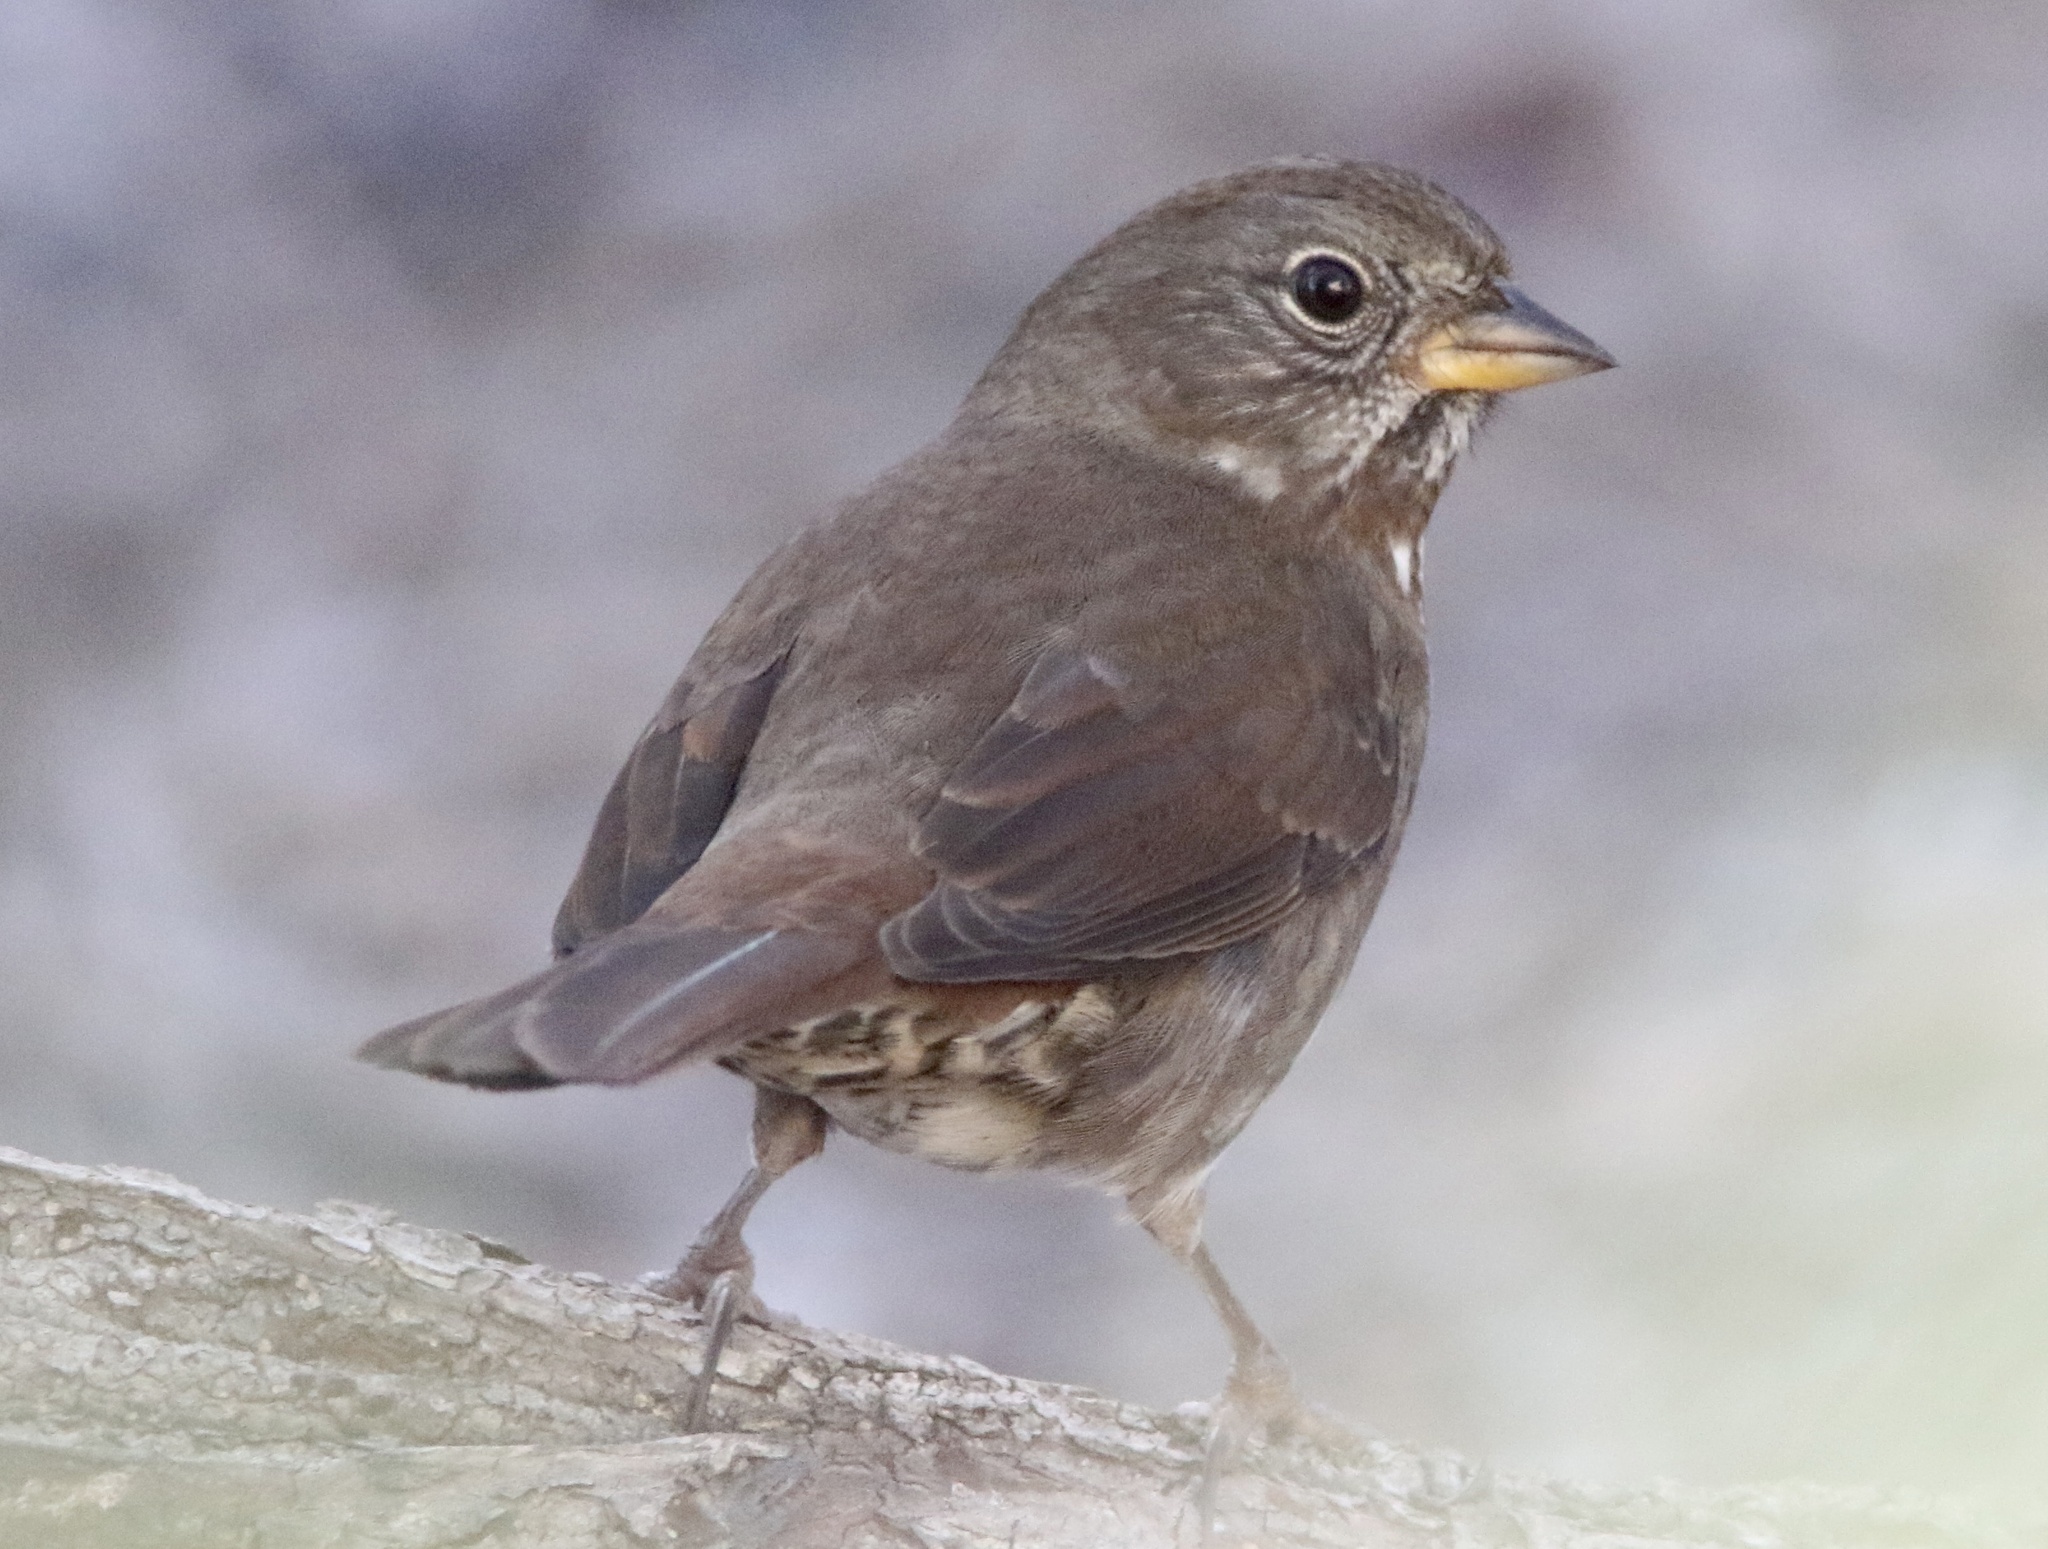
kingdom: Animalia
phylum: Chordata
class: Aves
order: Passeriformes
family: Passerellidae
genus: Passerella
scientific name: Passerella iliaca
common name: Fox sparrow
